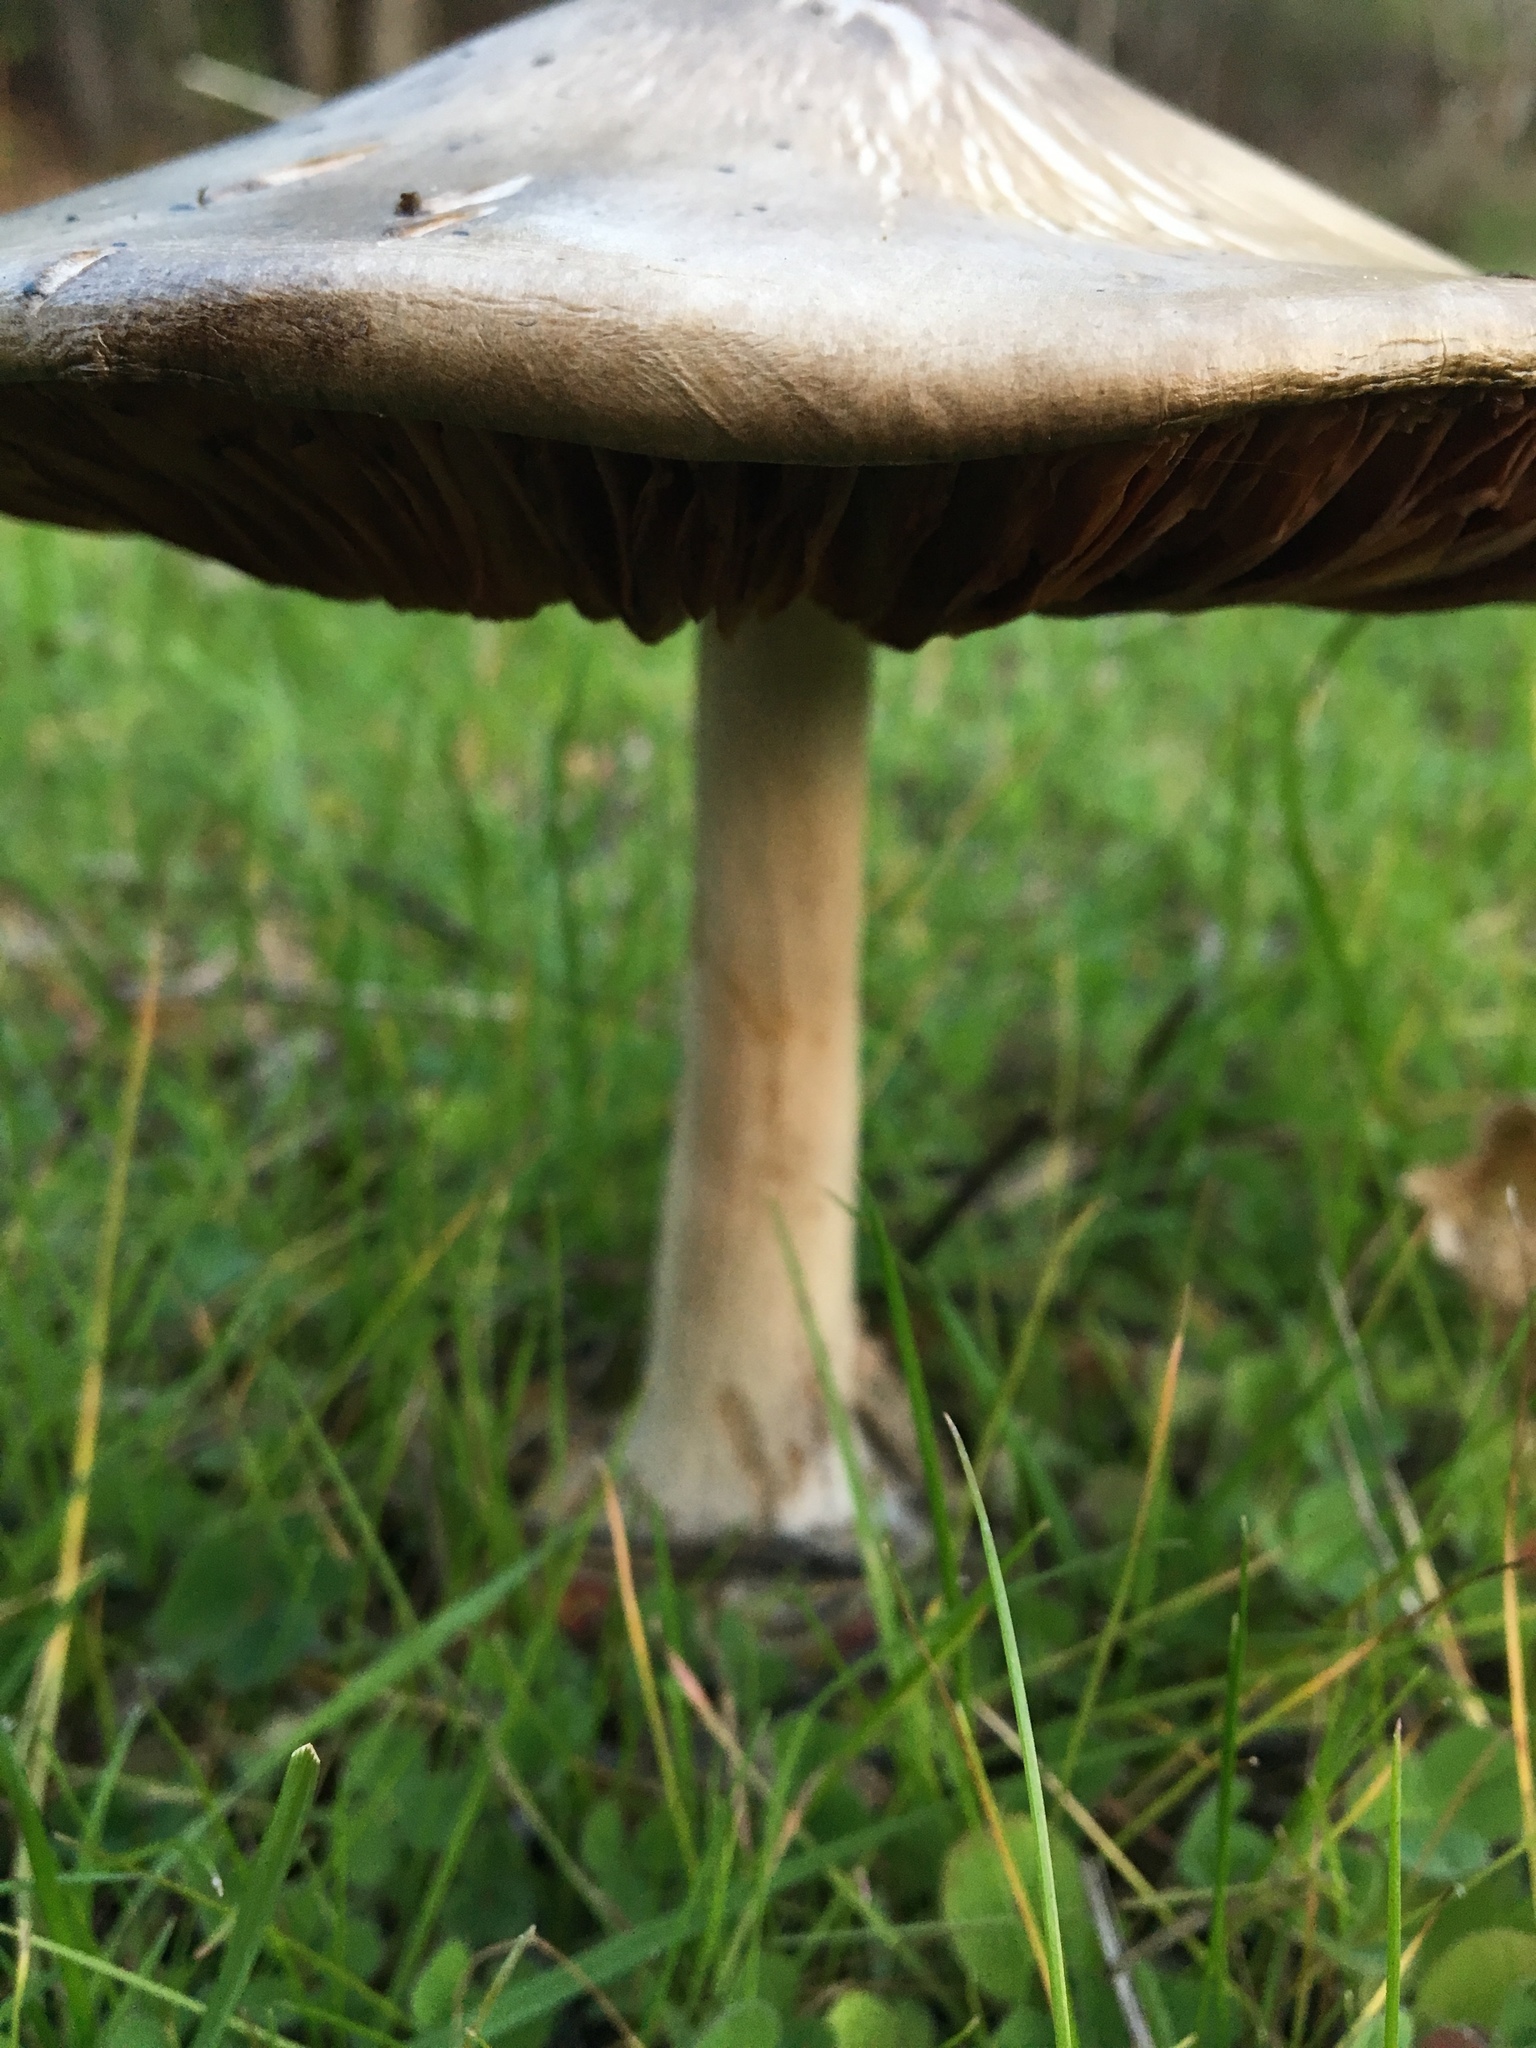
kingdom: Fungi
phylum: Basidiomycota
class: Agaricomycetes
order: Agaricales
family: Pluteaceae
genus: Volvopluteus
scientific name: Volvopluteus gloiocephalus
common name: Stubble rosegill
